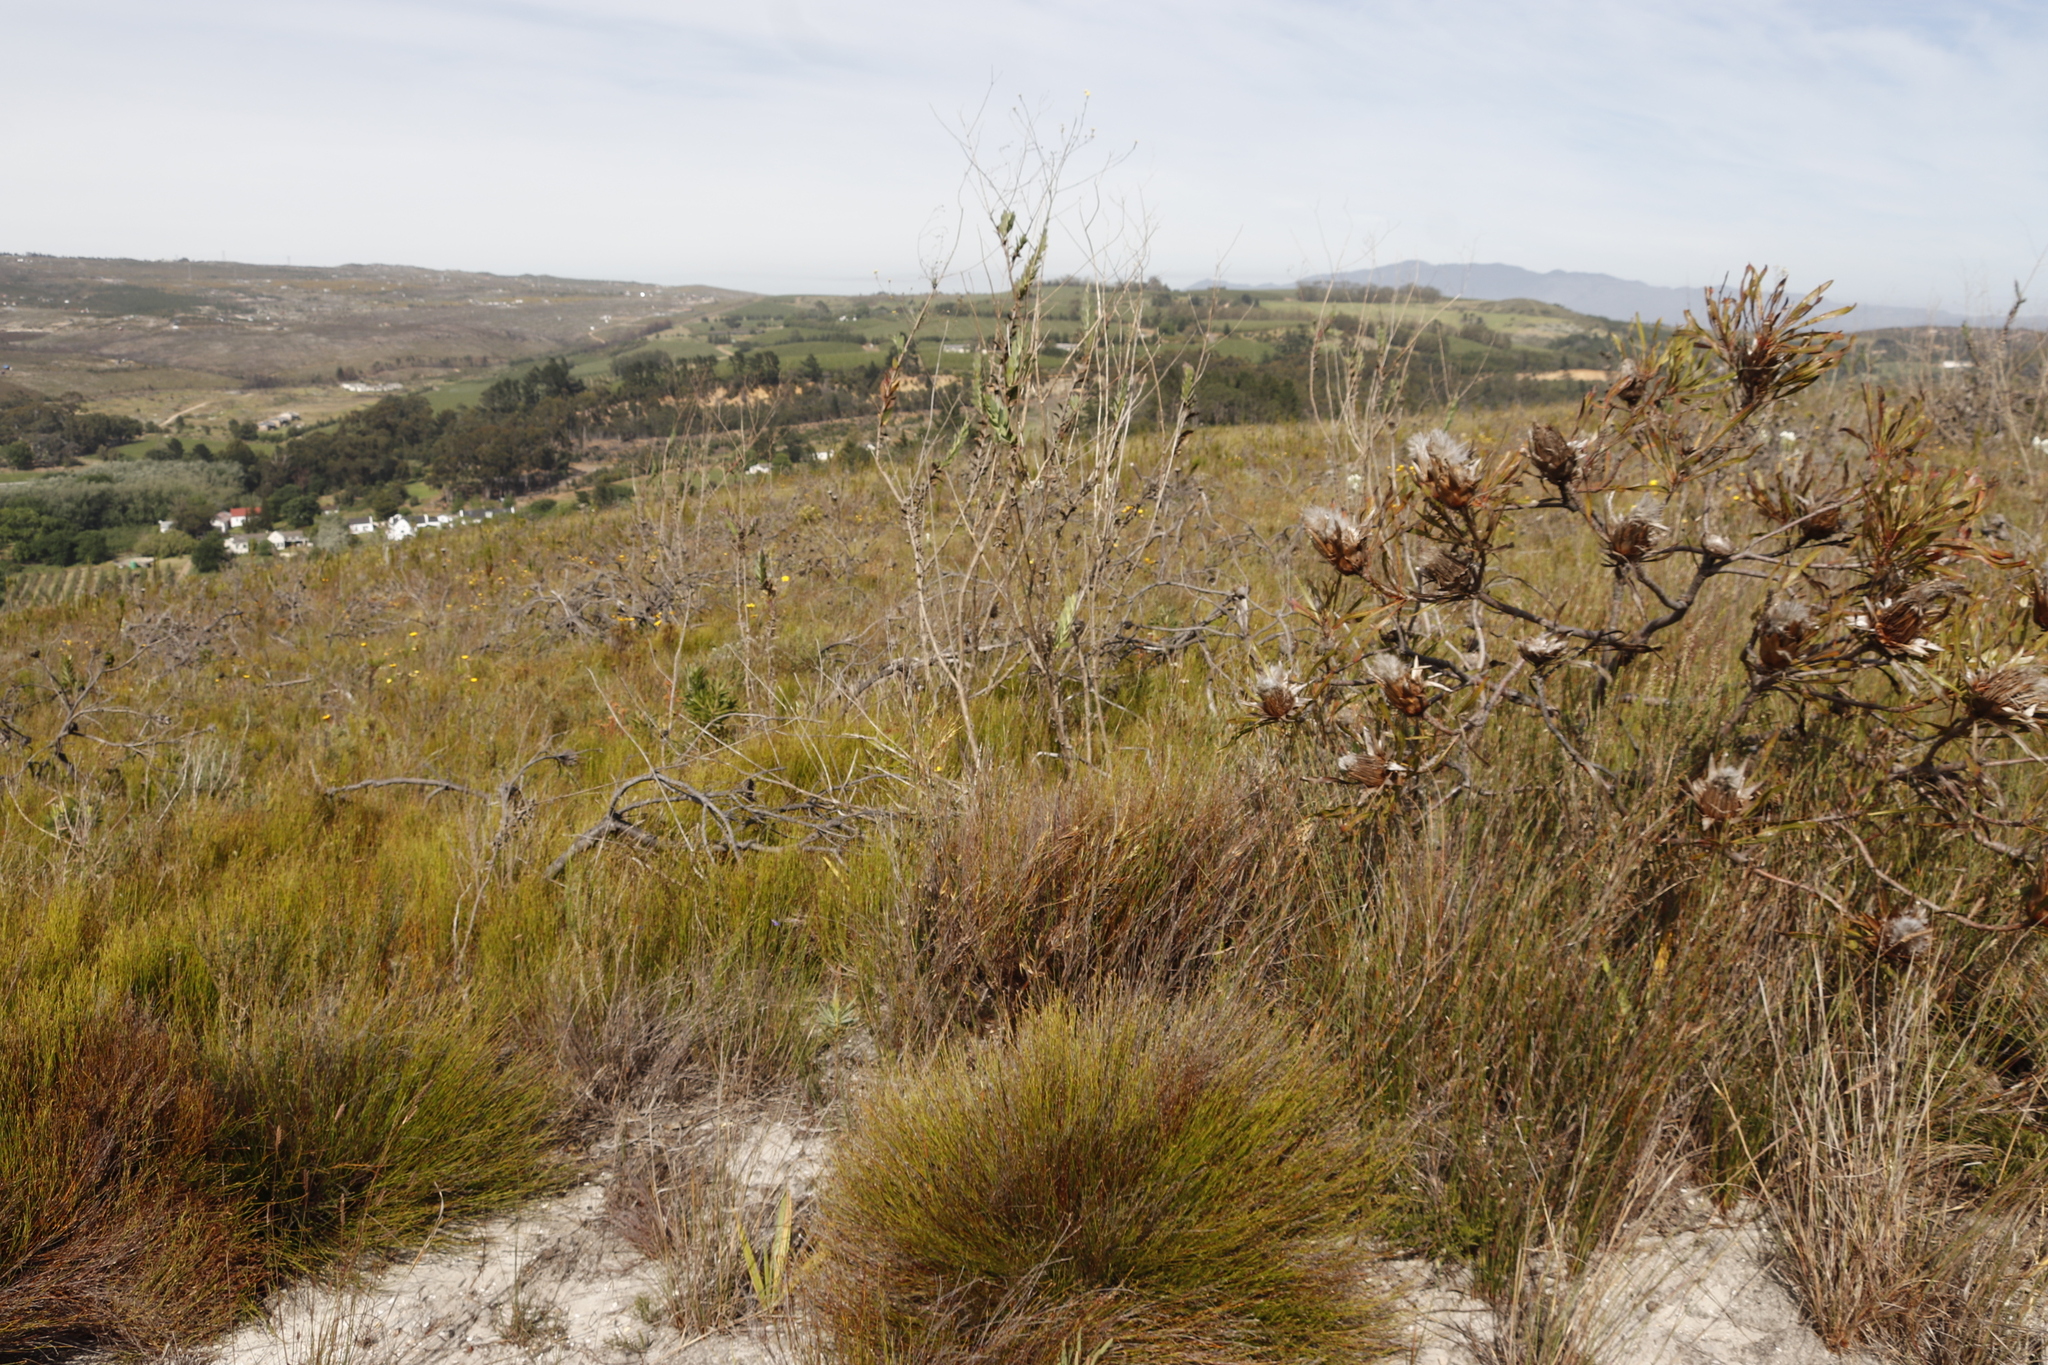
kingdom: Plantae
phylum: Tracheophyta
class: Magnoliopsida
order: Proteales
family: Proteaceae
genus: Protea
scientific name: Protea longifolia
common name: Long-leaf sugarbush
